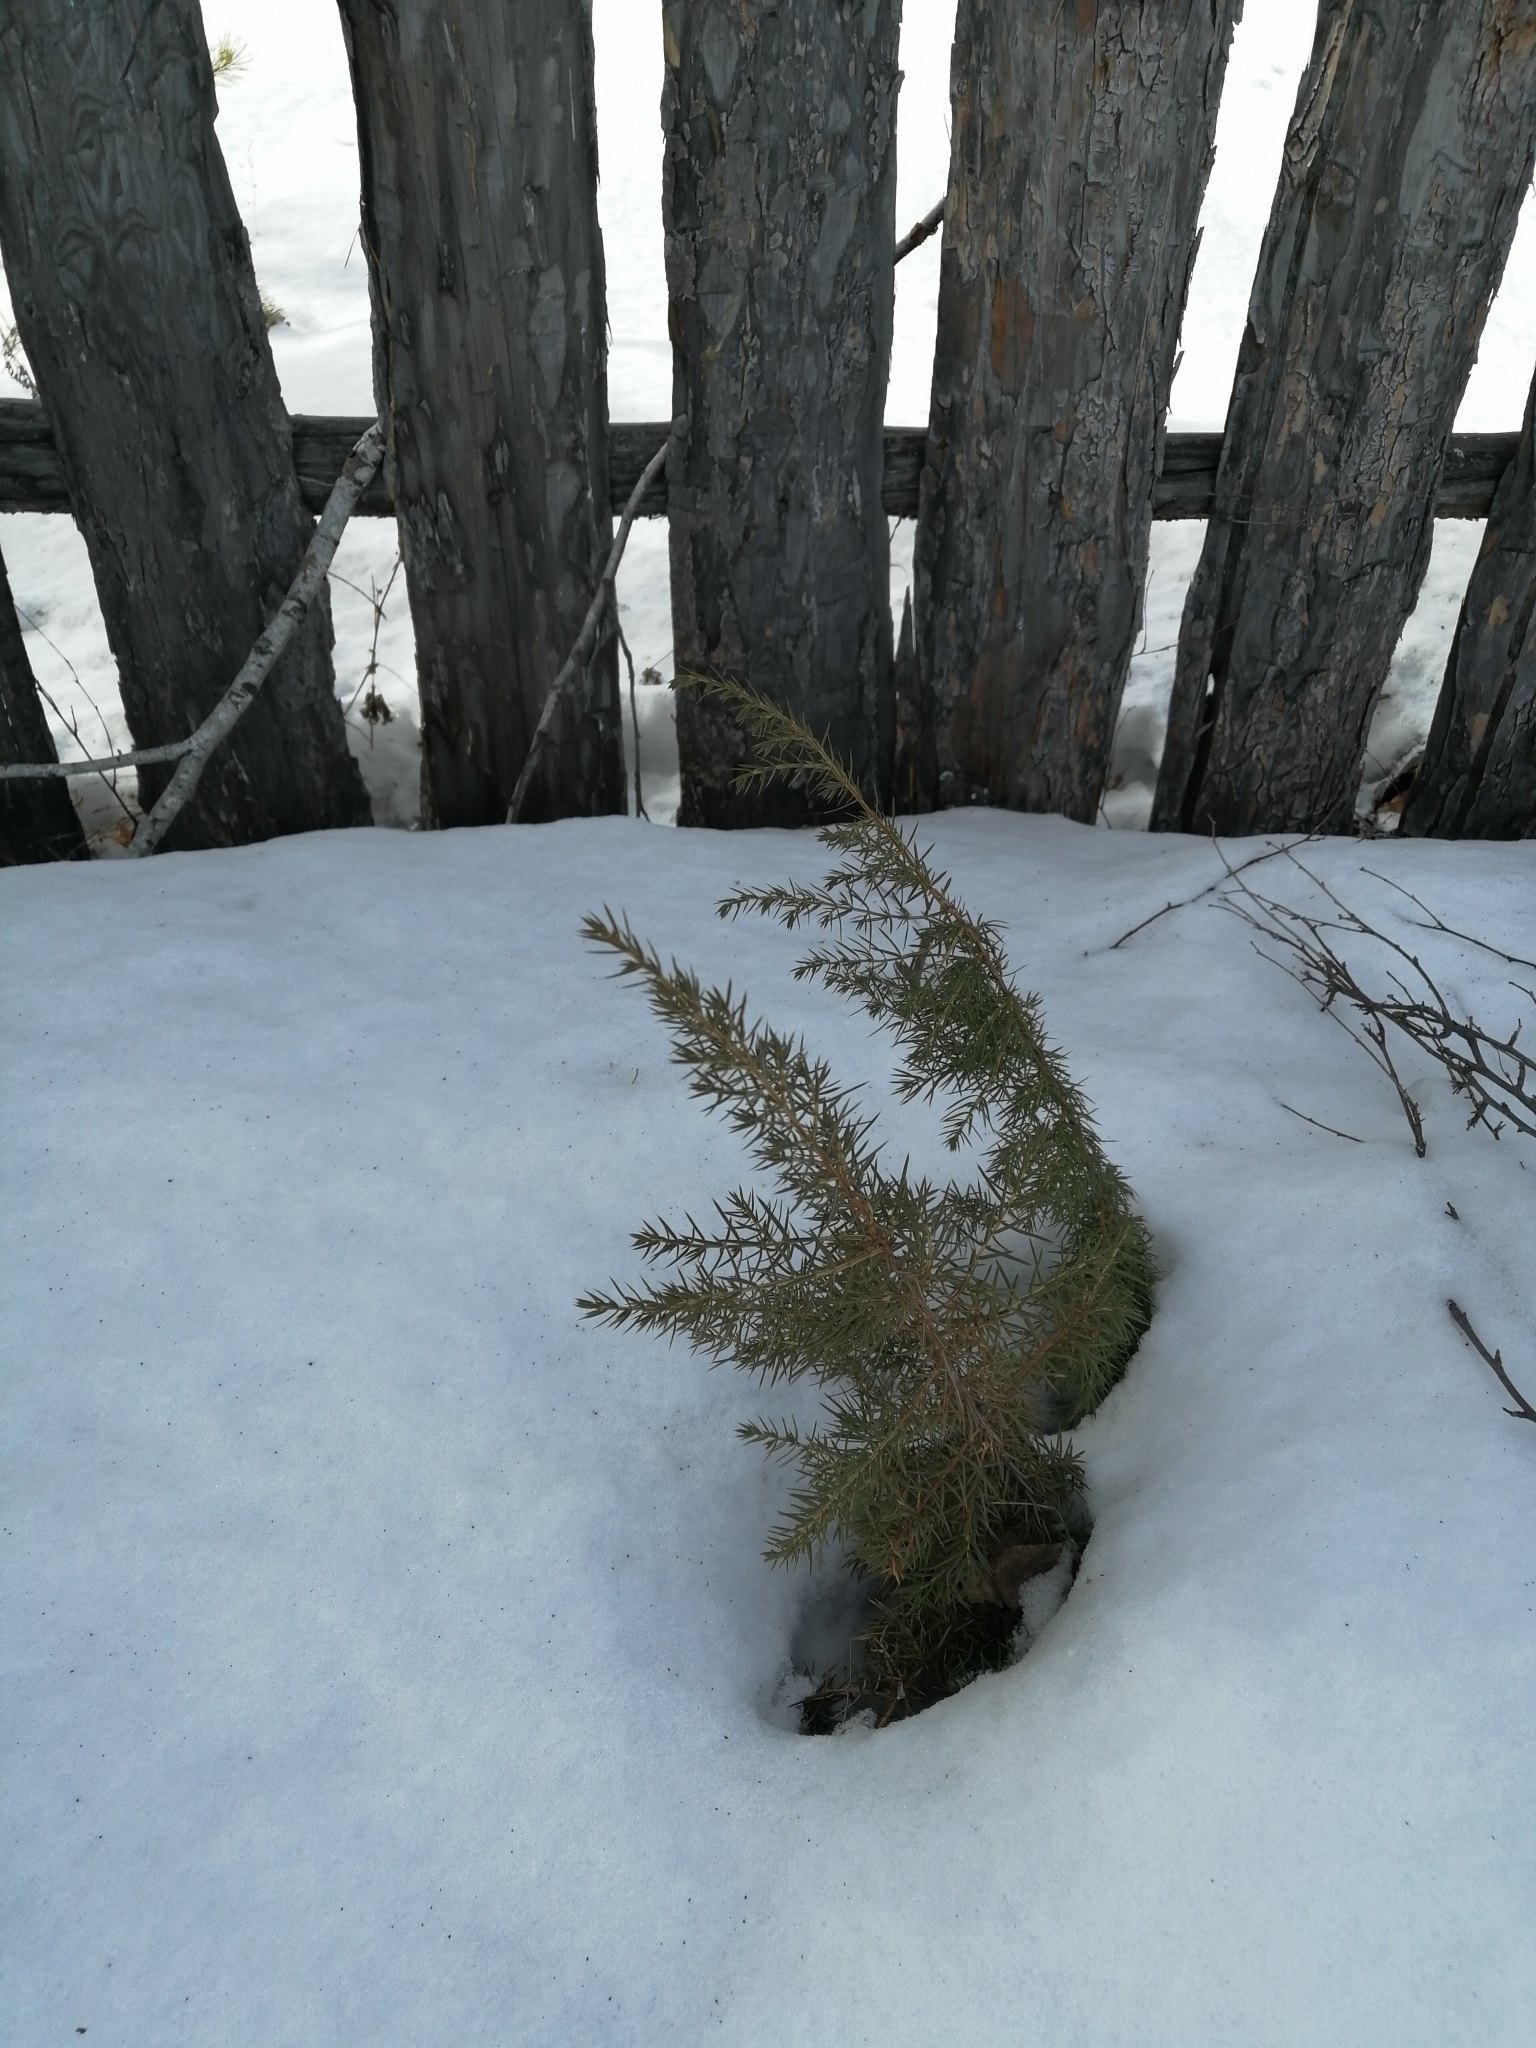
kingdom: Plantae
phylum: Tracheophyta
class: Pinopsida
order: Pinales
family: Cupressaceae
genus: Juniperus
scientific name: Juniperus communis
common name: Common juniper
